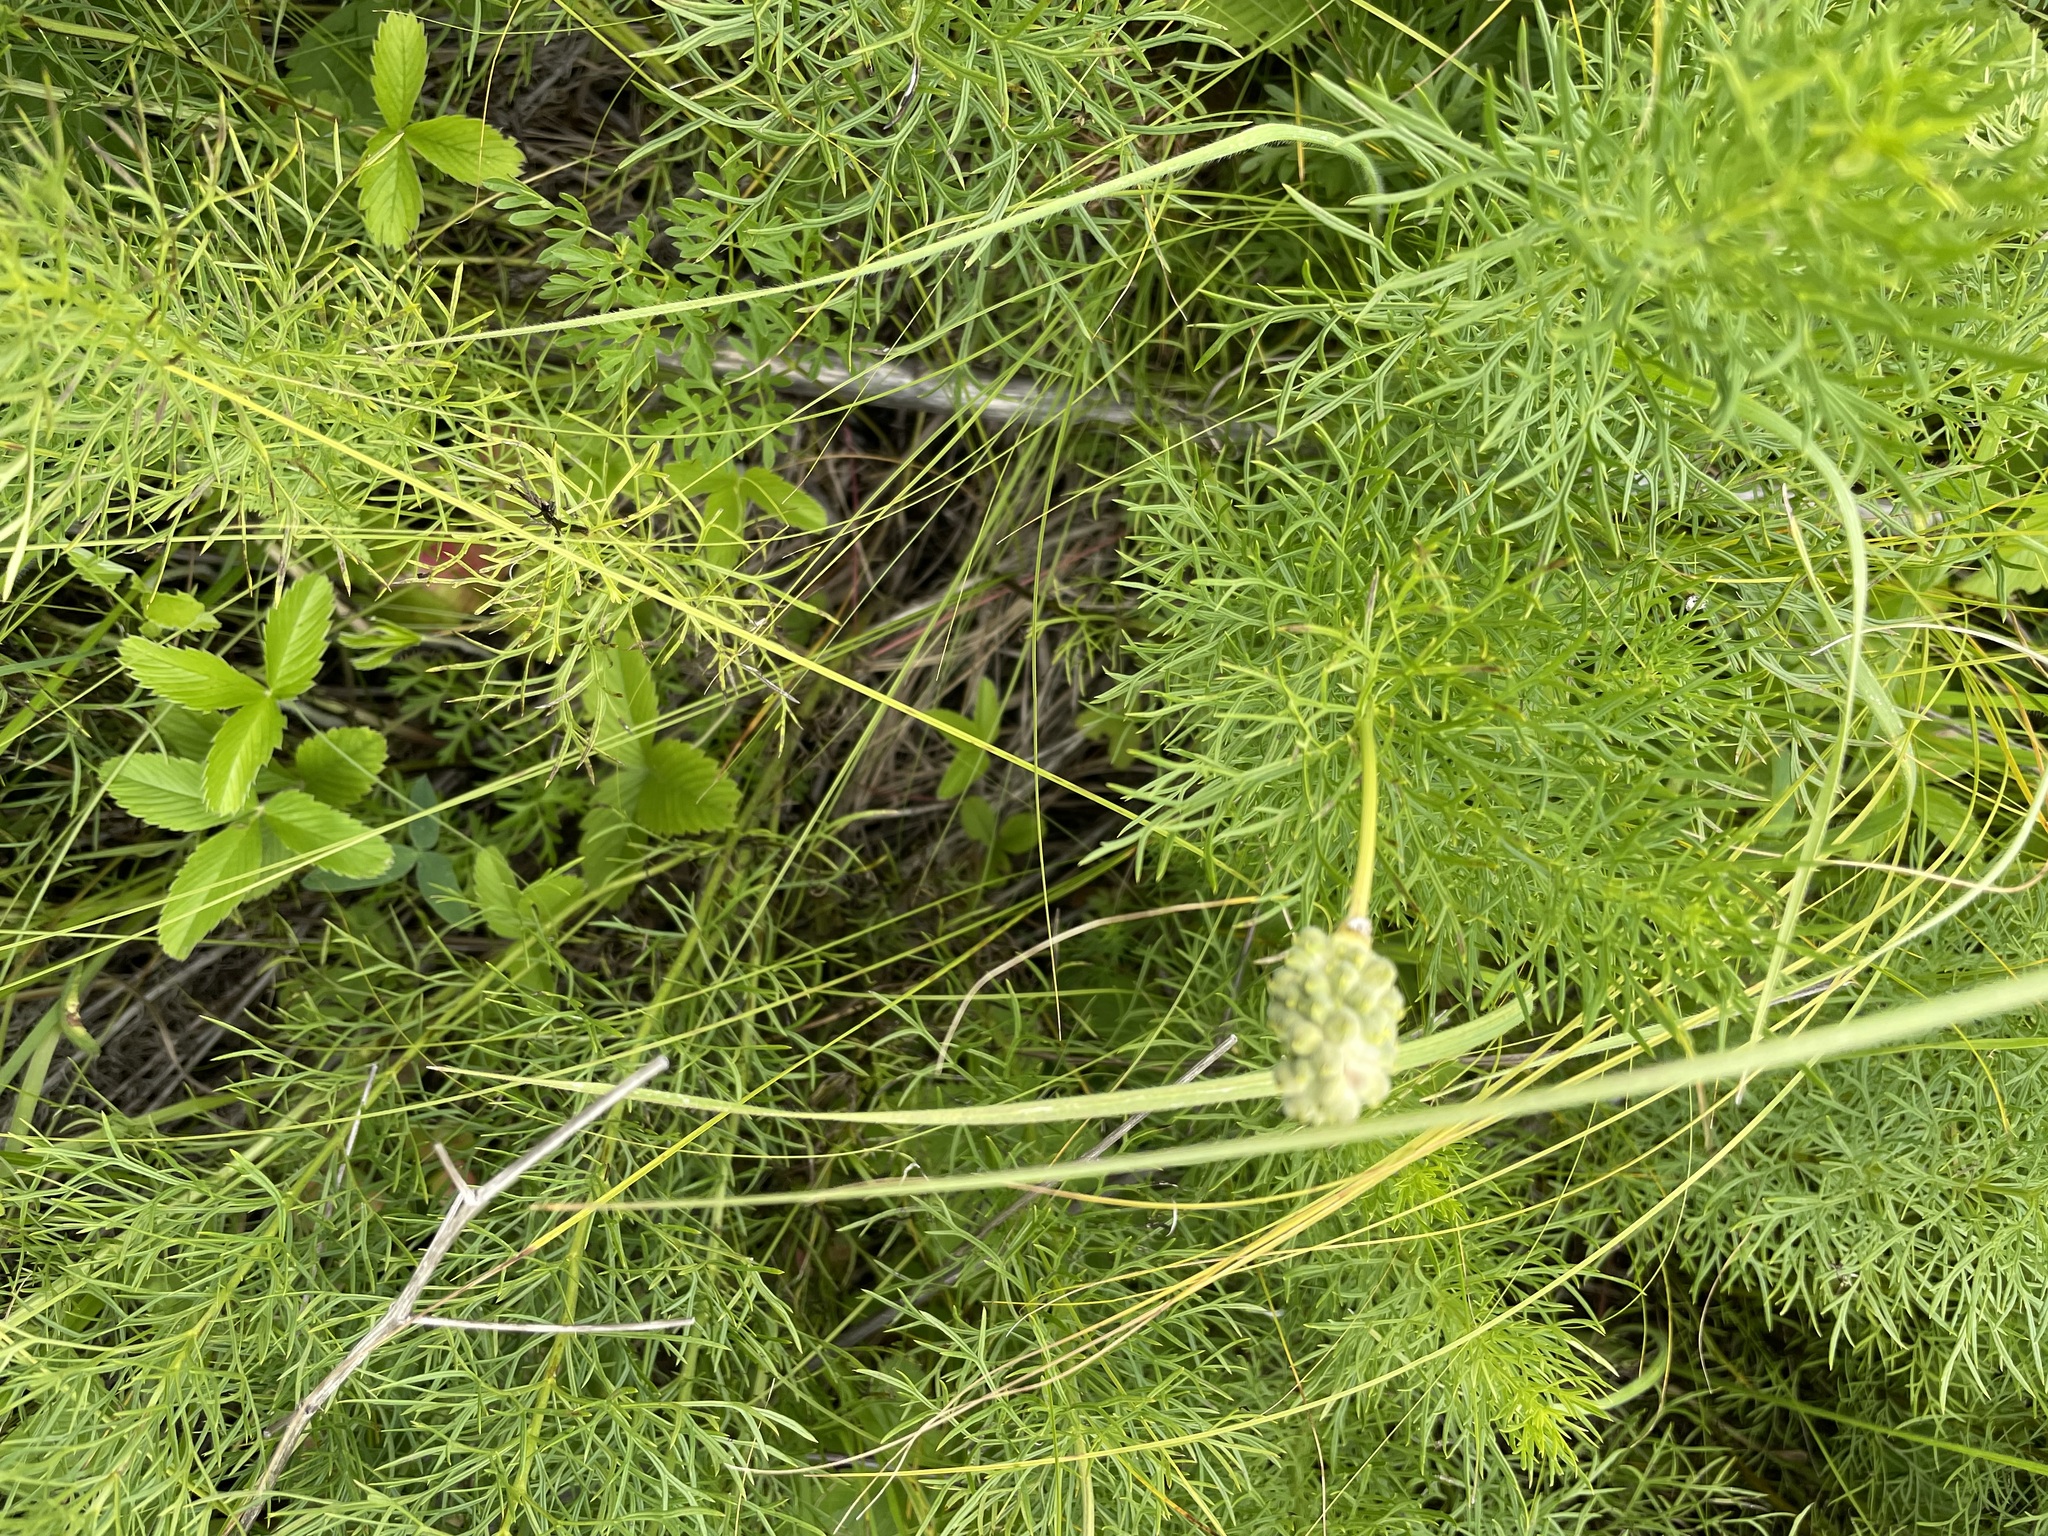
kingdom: Plantae
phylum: Tracheophyta
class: Magnoliopsida
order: Ranunculales
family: Ranunculaceae
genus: Adonis
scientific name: Adonis vernalis
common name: Yellow pheasants-eye
